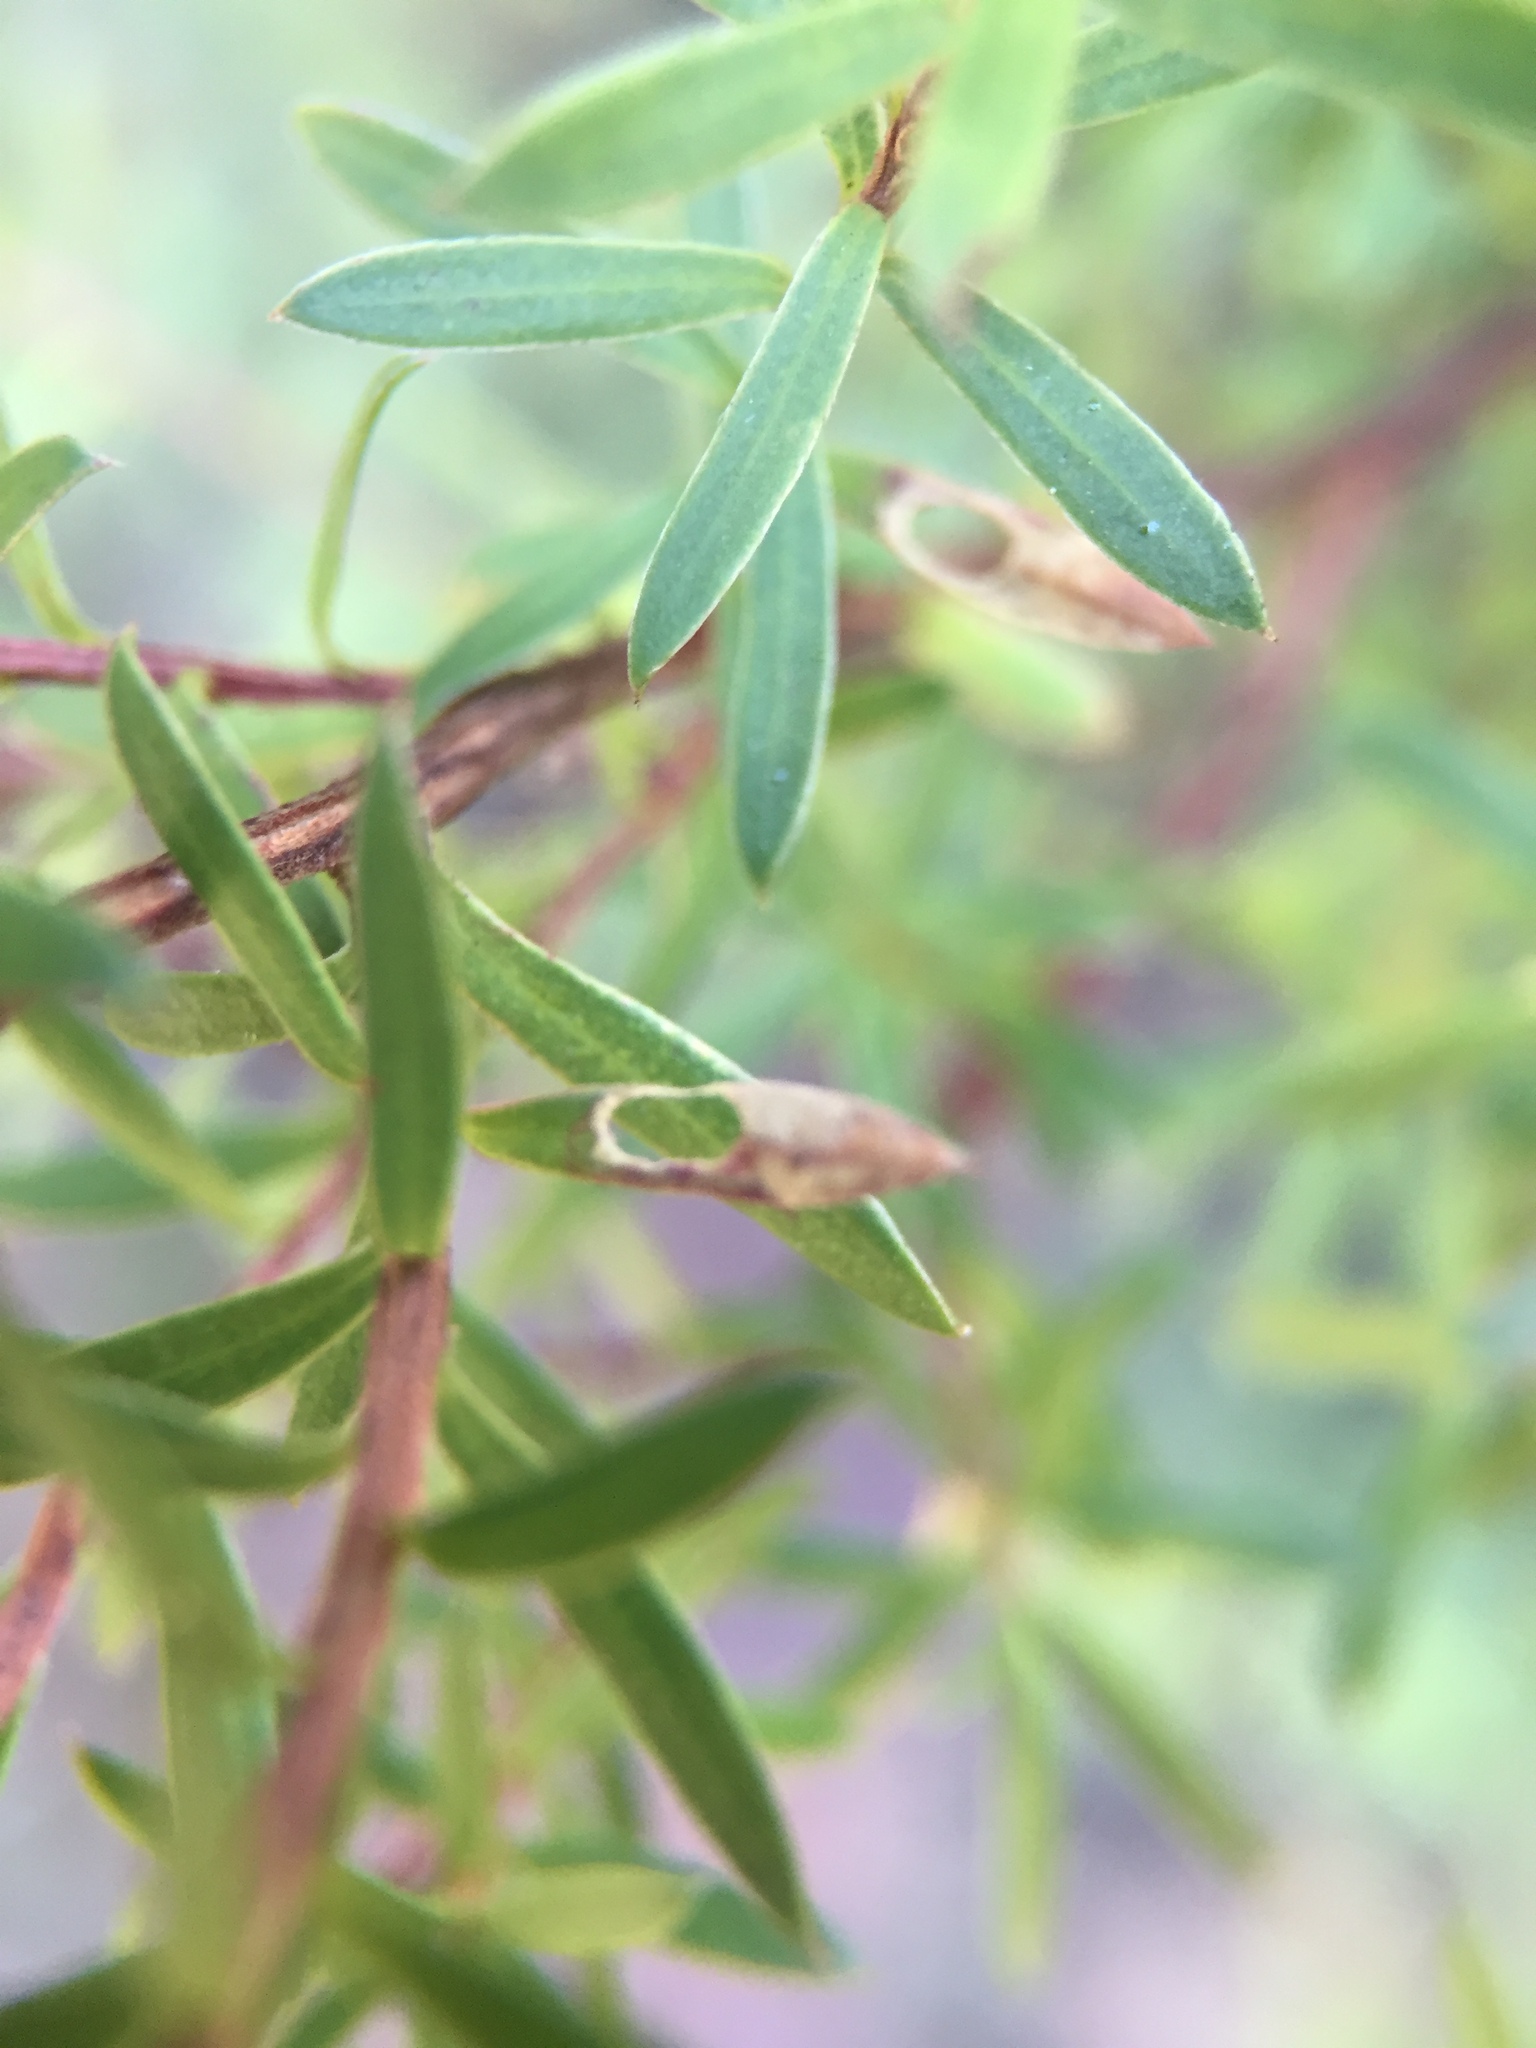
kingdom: Animalia
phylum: Arthropoda
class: Insecta
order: Lepidoptera
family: Heliozelidae
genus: Heliozela
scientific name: Heliozela catoptrias
